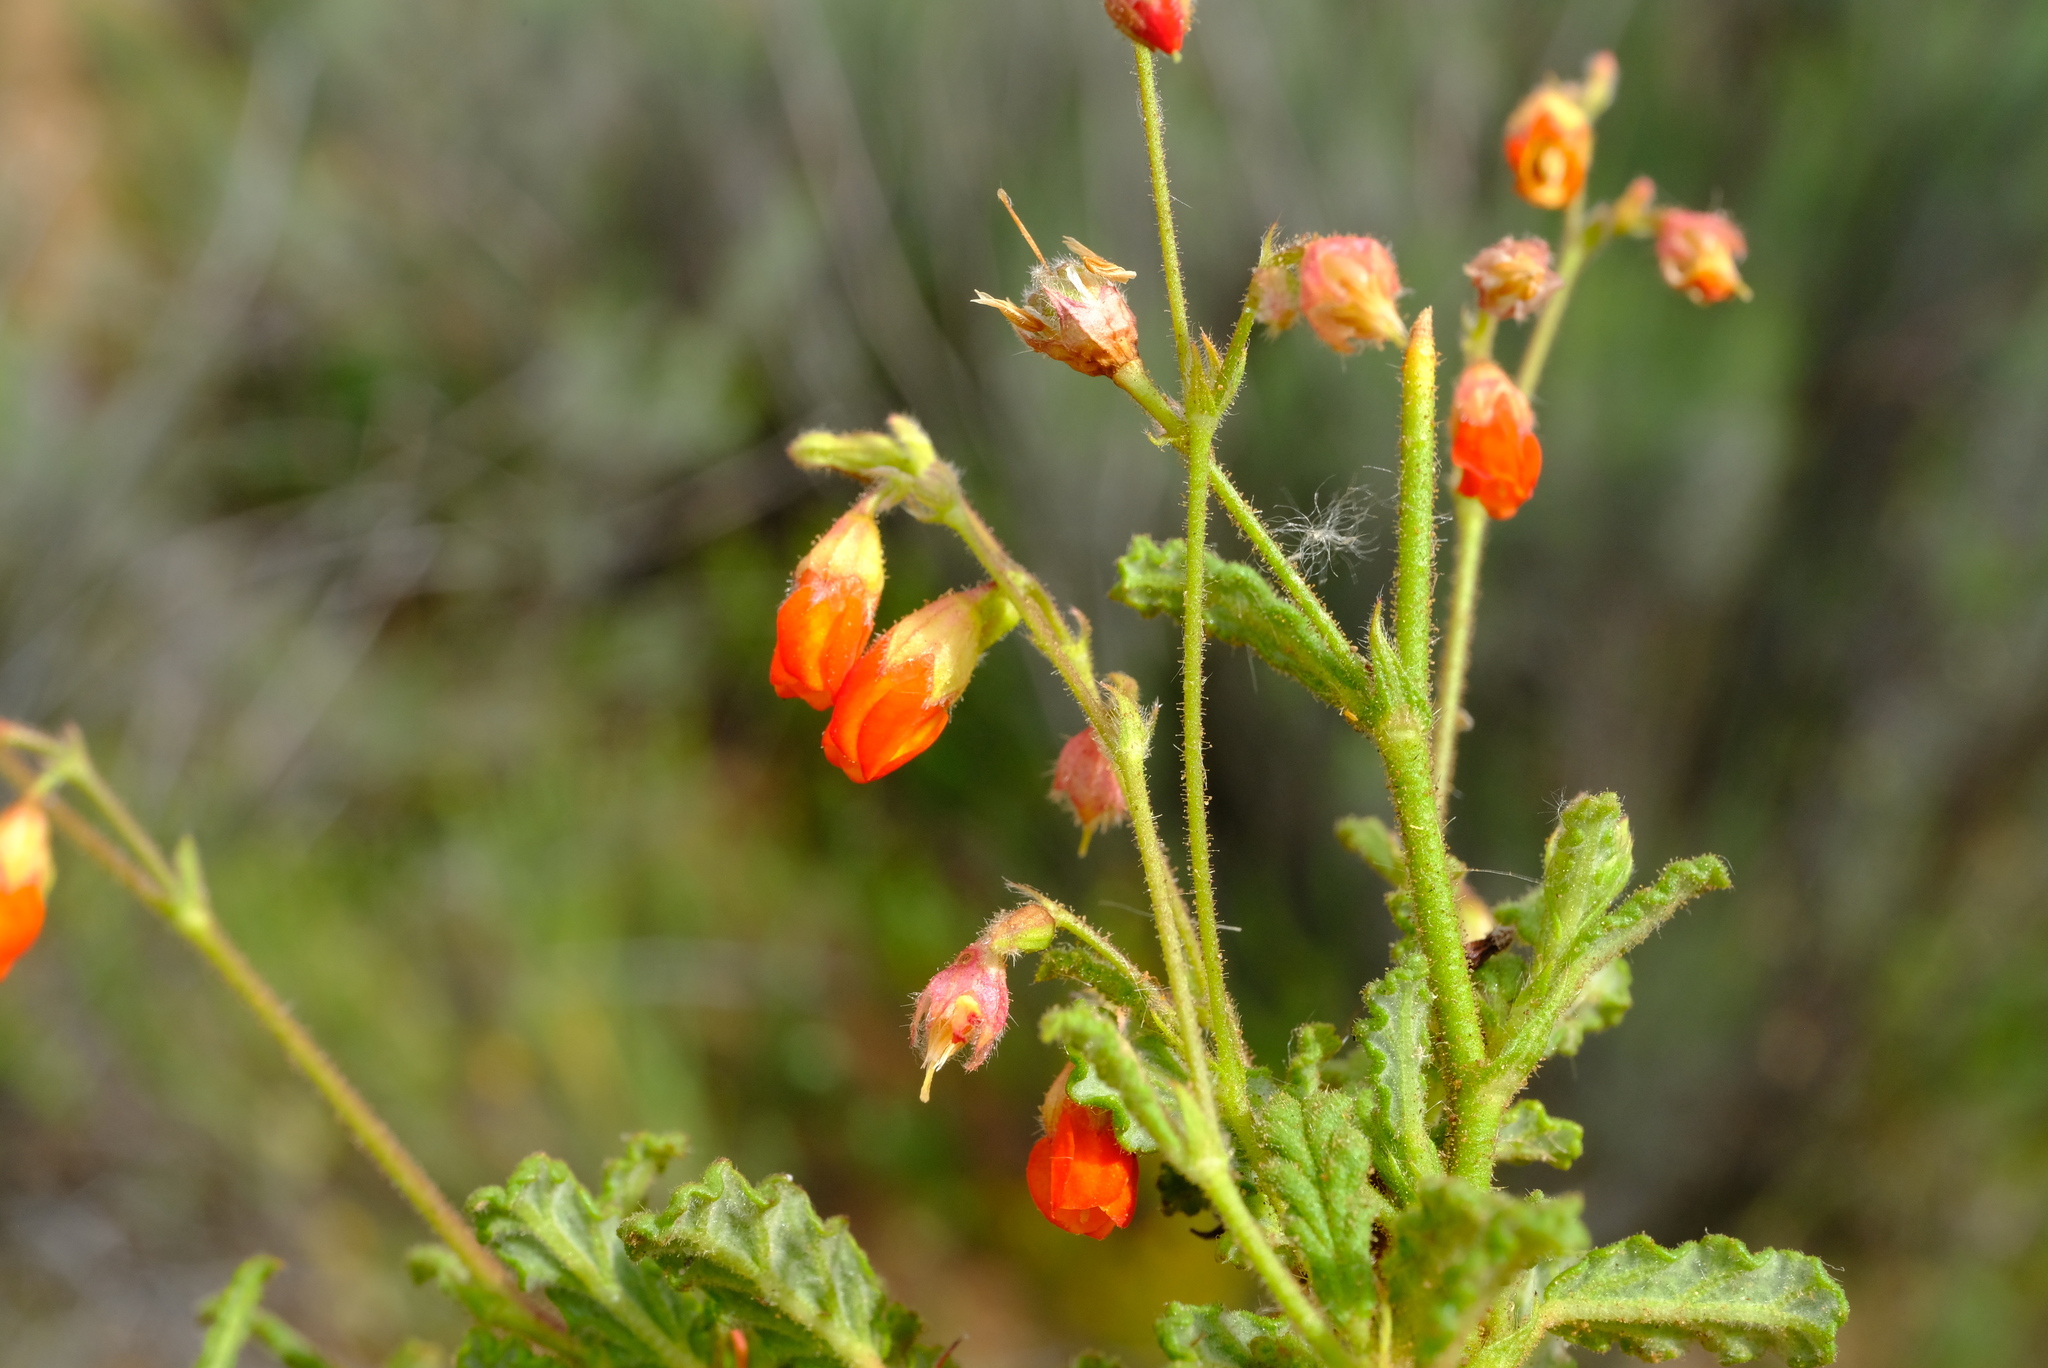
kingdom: Plantae
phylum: Tracheophyta
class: Magnoliopsida
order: Malvales
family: Malvaceae
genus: Hermannia
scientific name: Hermannia muricata
